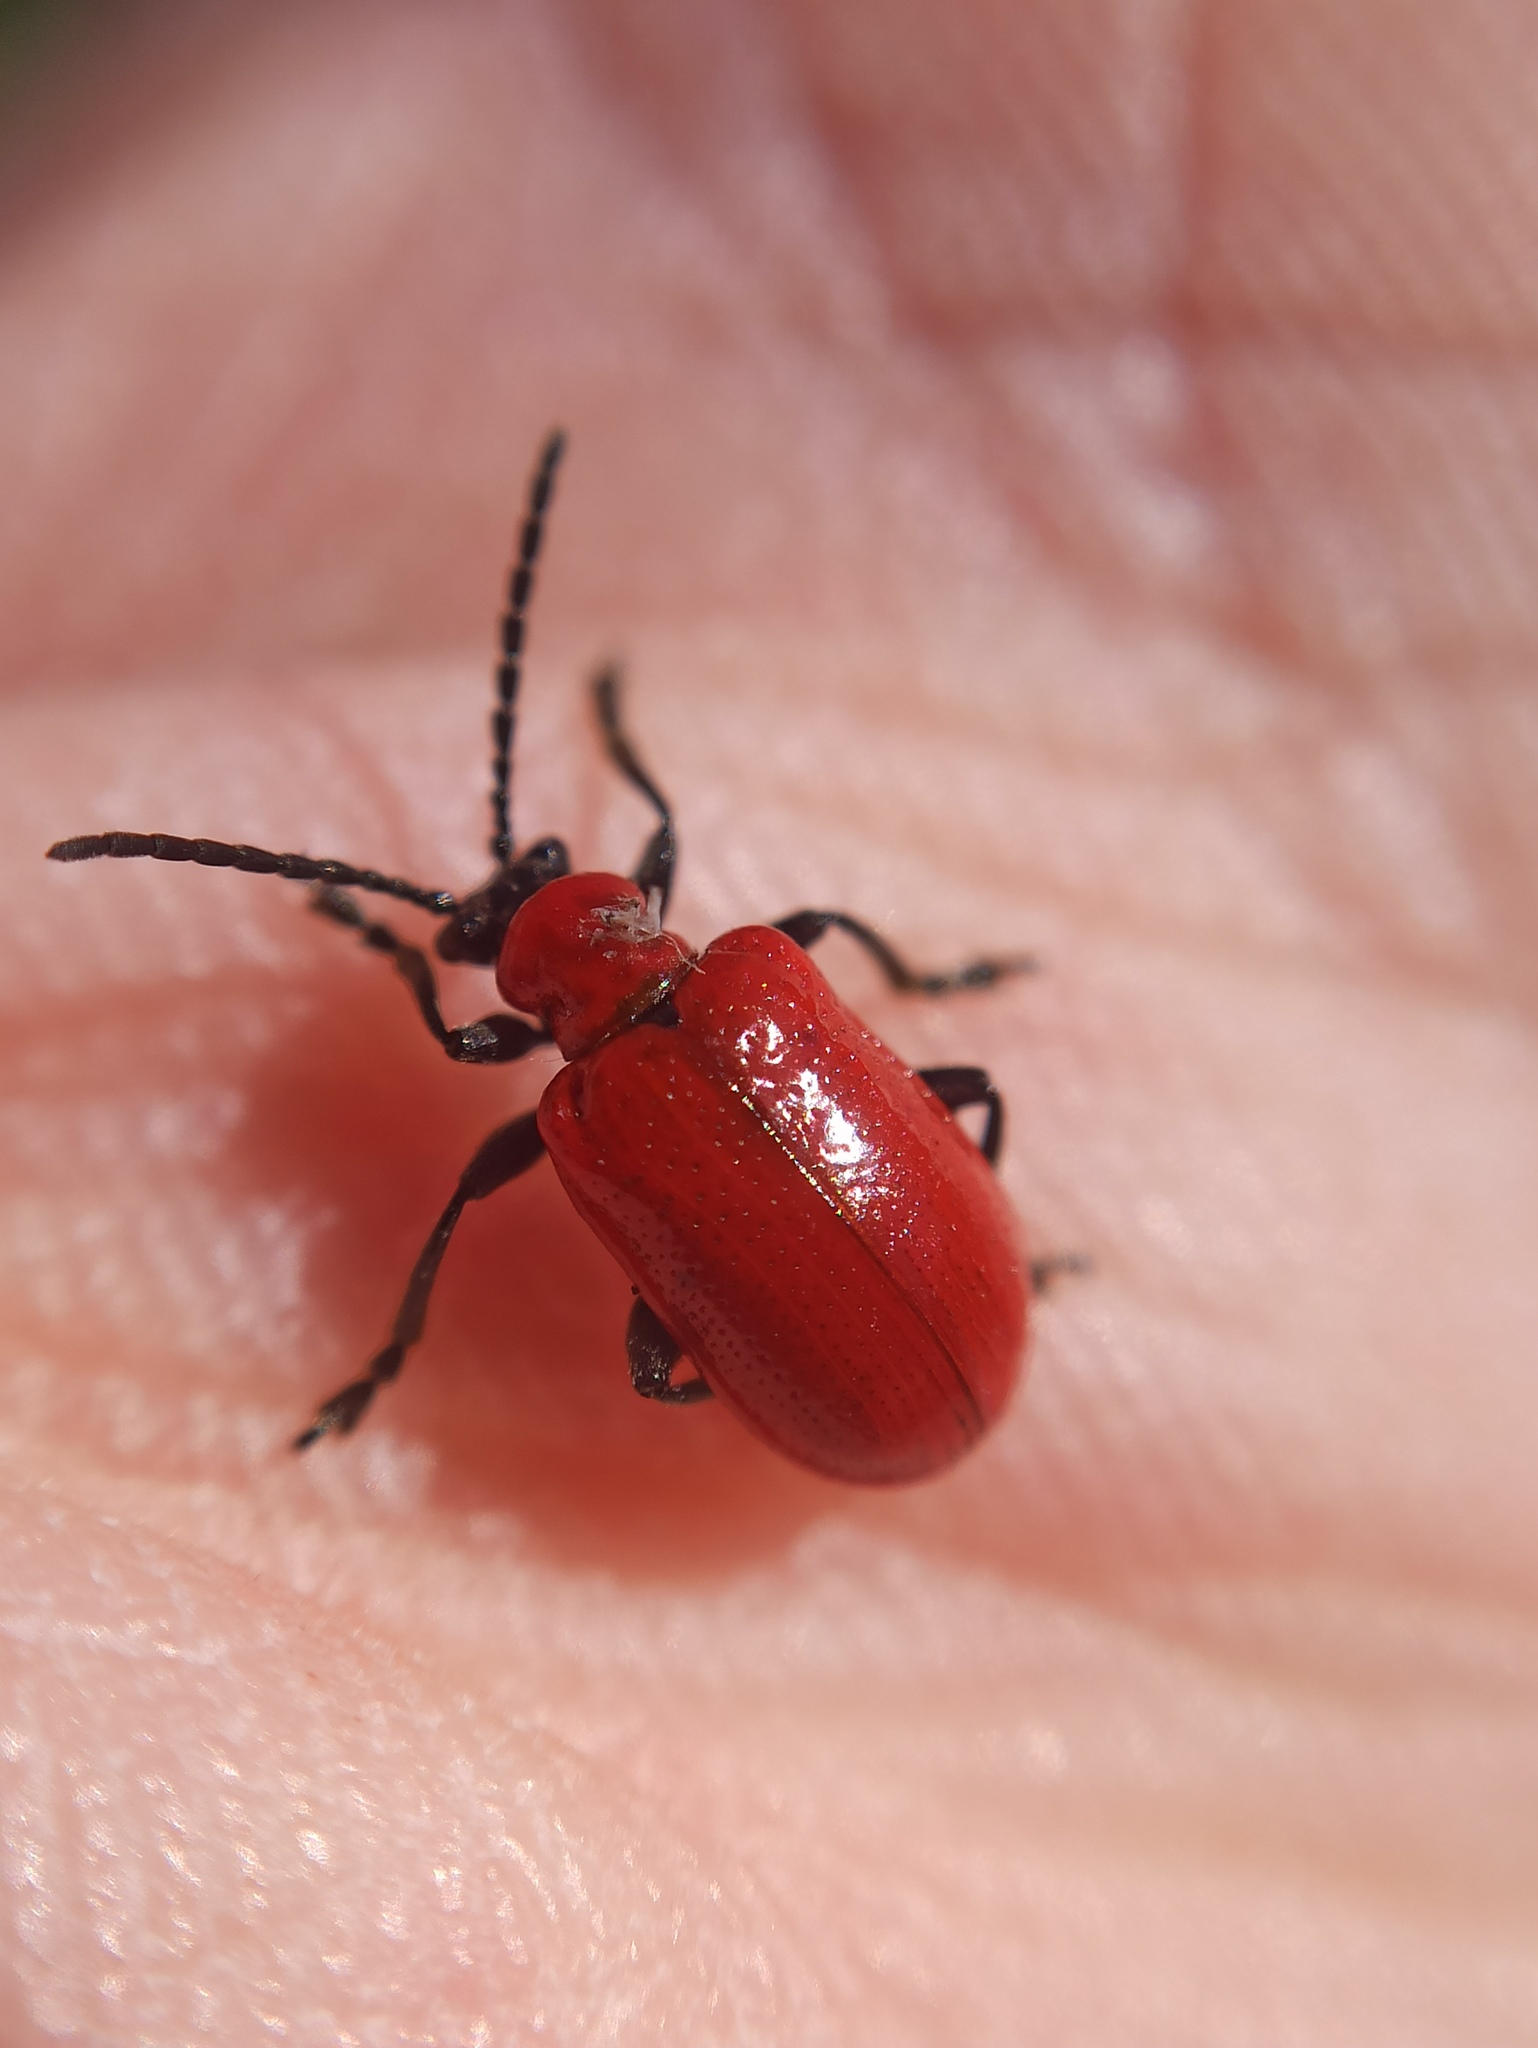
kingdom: Animalia
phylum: Arthropoda
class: Insecta
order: Coleoptera
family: Chrysomelidae
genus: Lilioceris
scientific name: Lilioceris lilii
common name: Lily beetle
